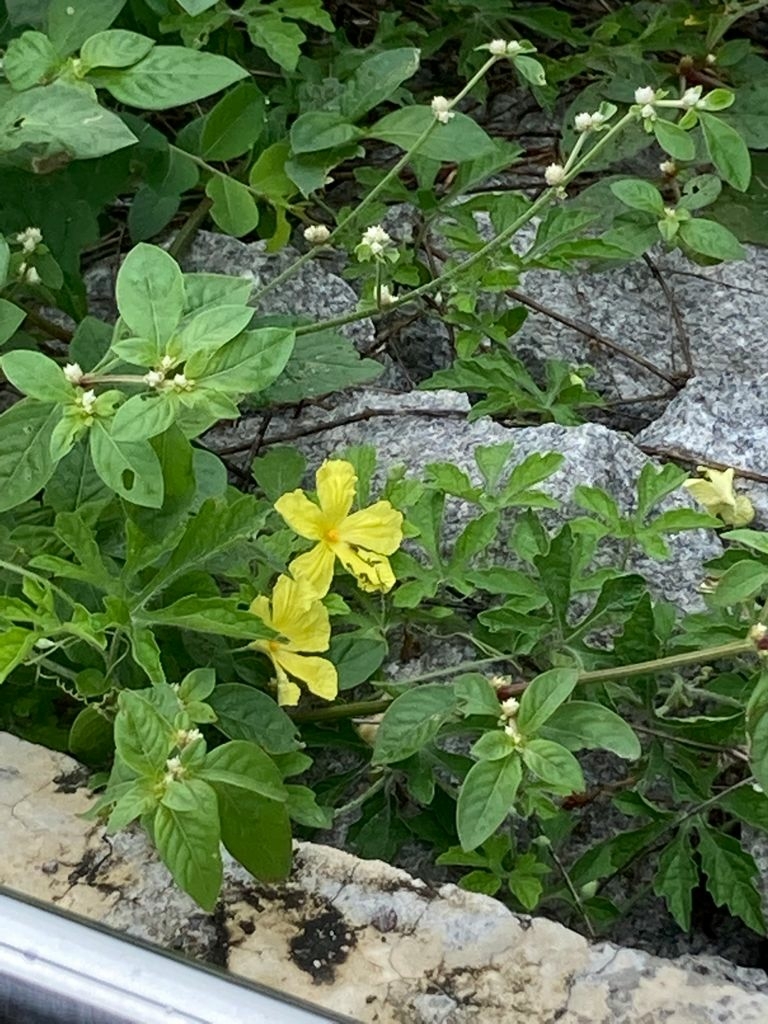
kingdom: Plantae
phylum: Tracheophyta
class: Magnoliopsida
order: Cucurbitales
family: Cucurbitaceae
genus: Momordica
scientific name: Momordica charantia
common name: Balsampear
